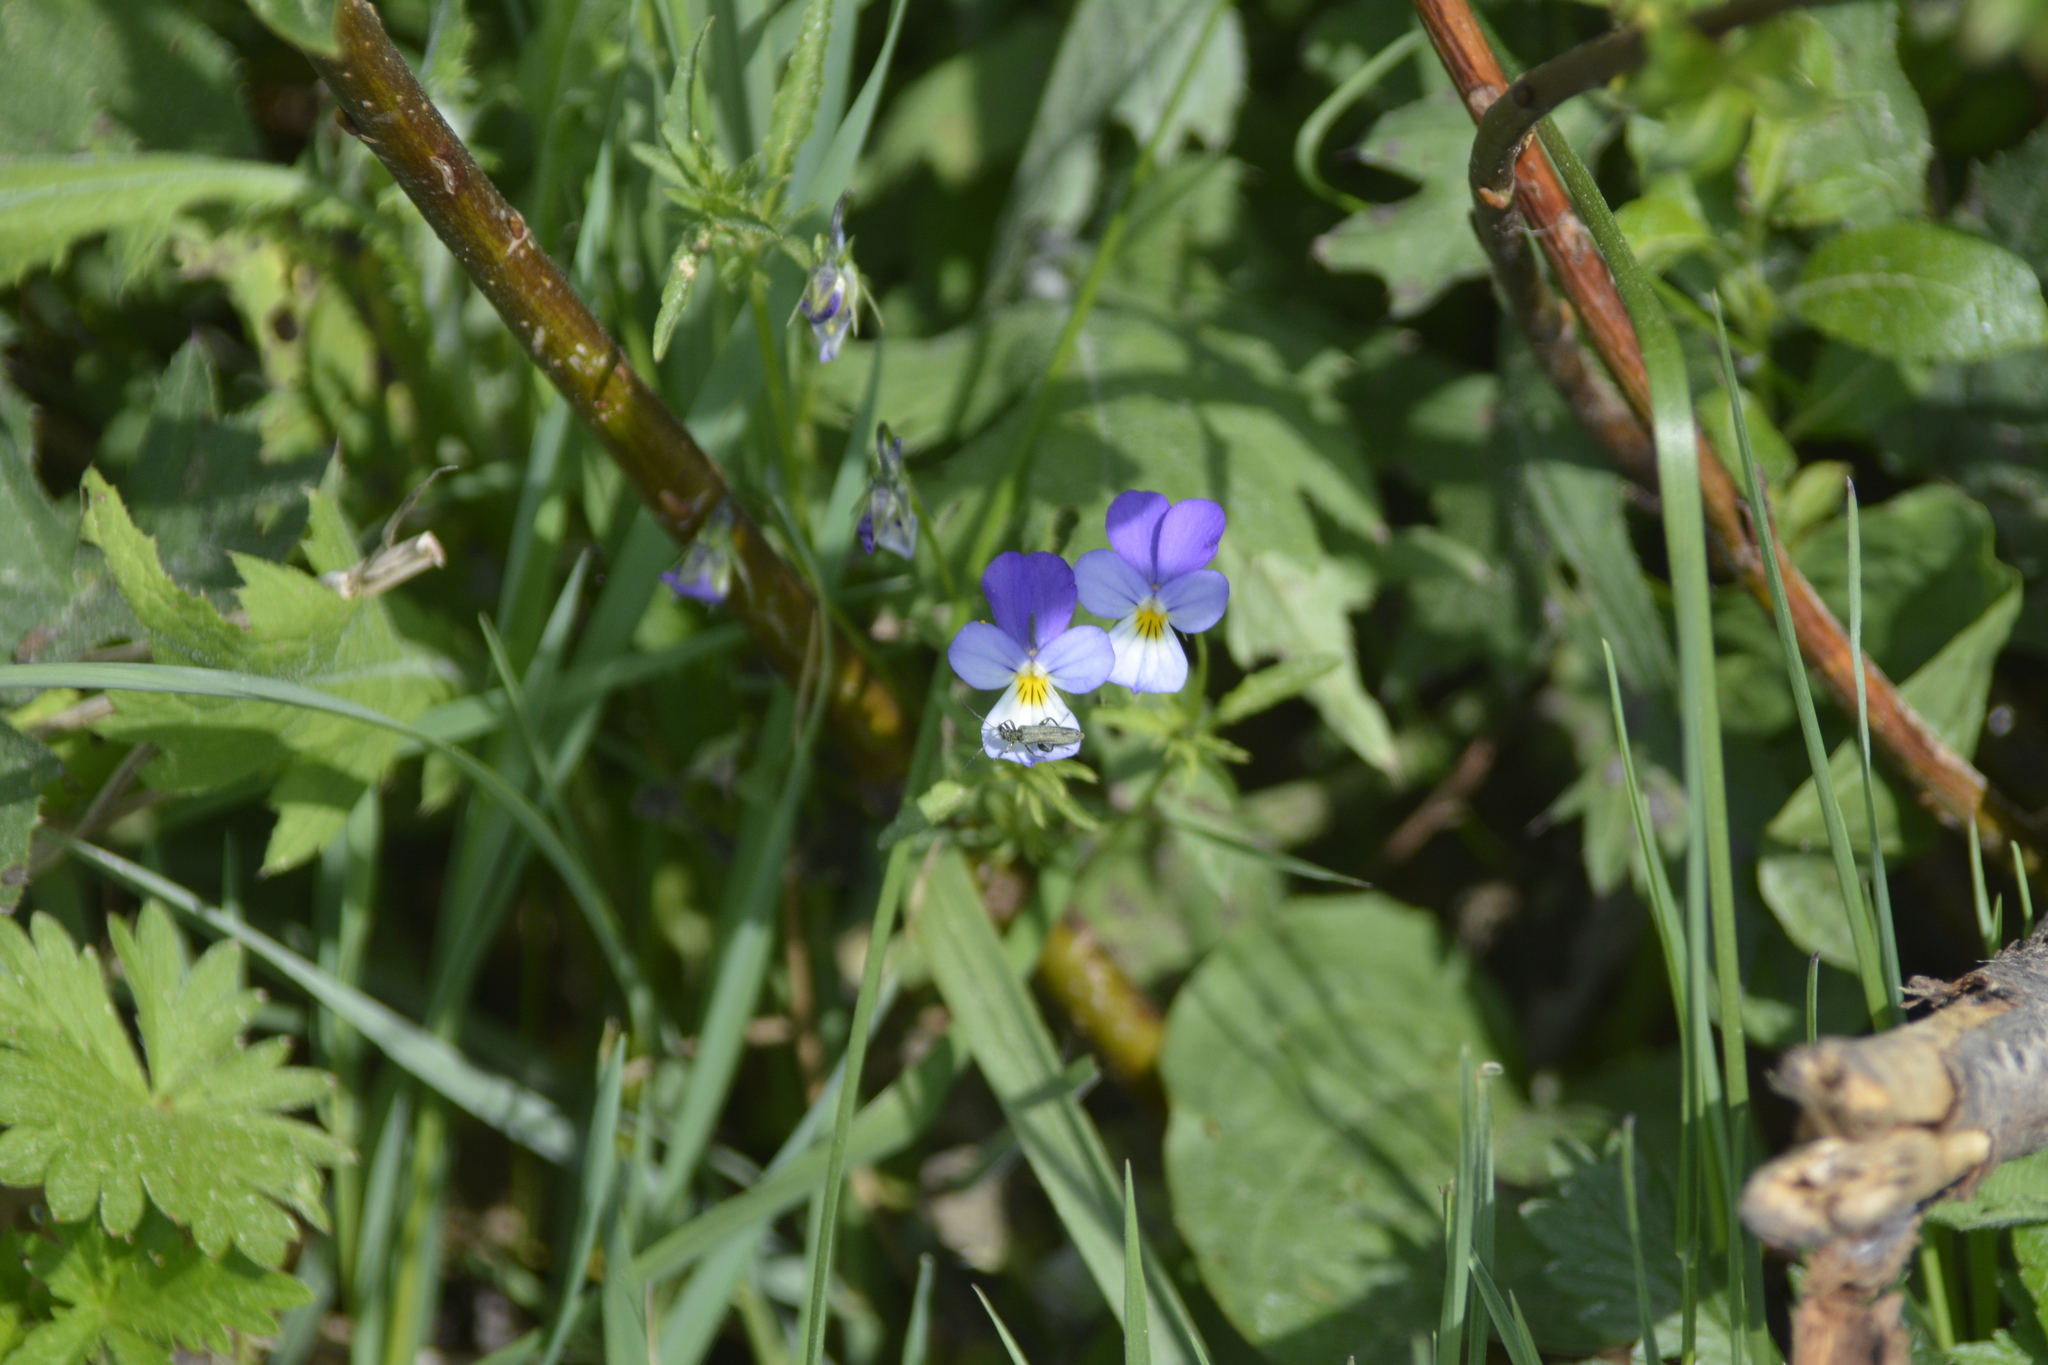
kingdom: Plantae
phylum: Tracheophyta
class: Magnoliopsida
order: Malpighiales
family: Violaceae
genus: Viola
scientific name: Viola tricolor
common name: Pansy
